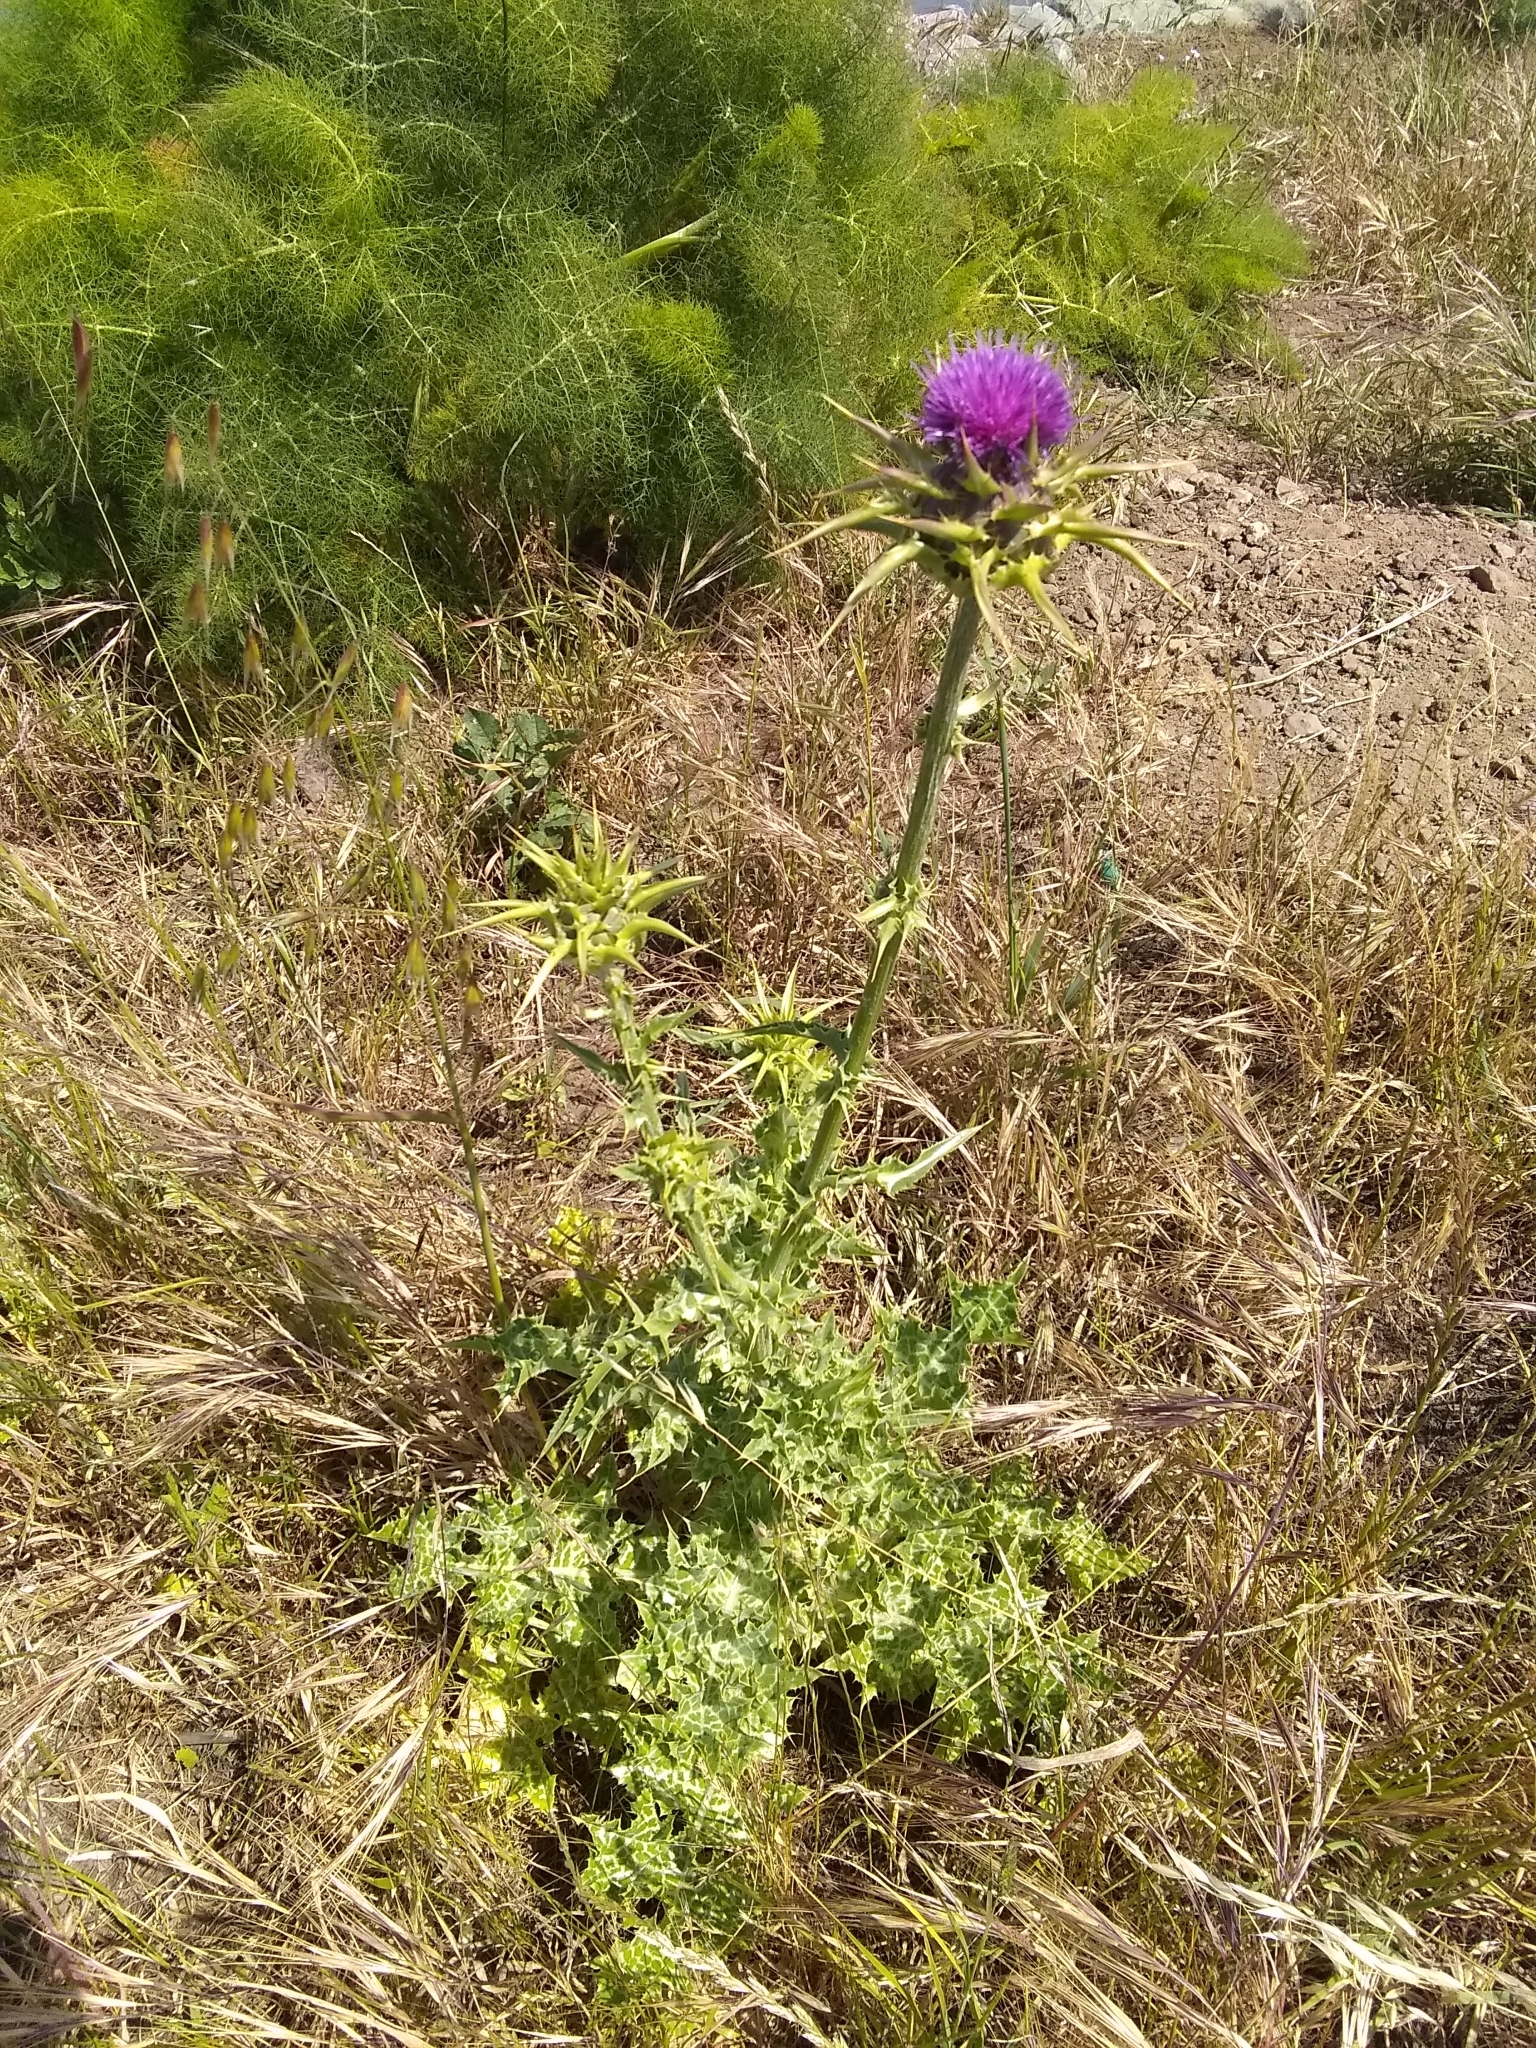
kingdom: Plantae
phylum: Tracheophyta
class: Magnoliopsida
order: Asterales
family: Asteraceae
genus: Silybum
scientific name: Silybum marianum
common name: Milk thistle
